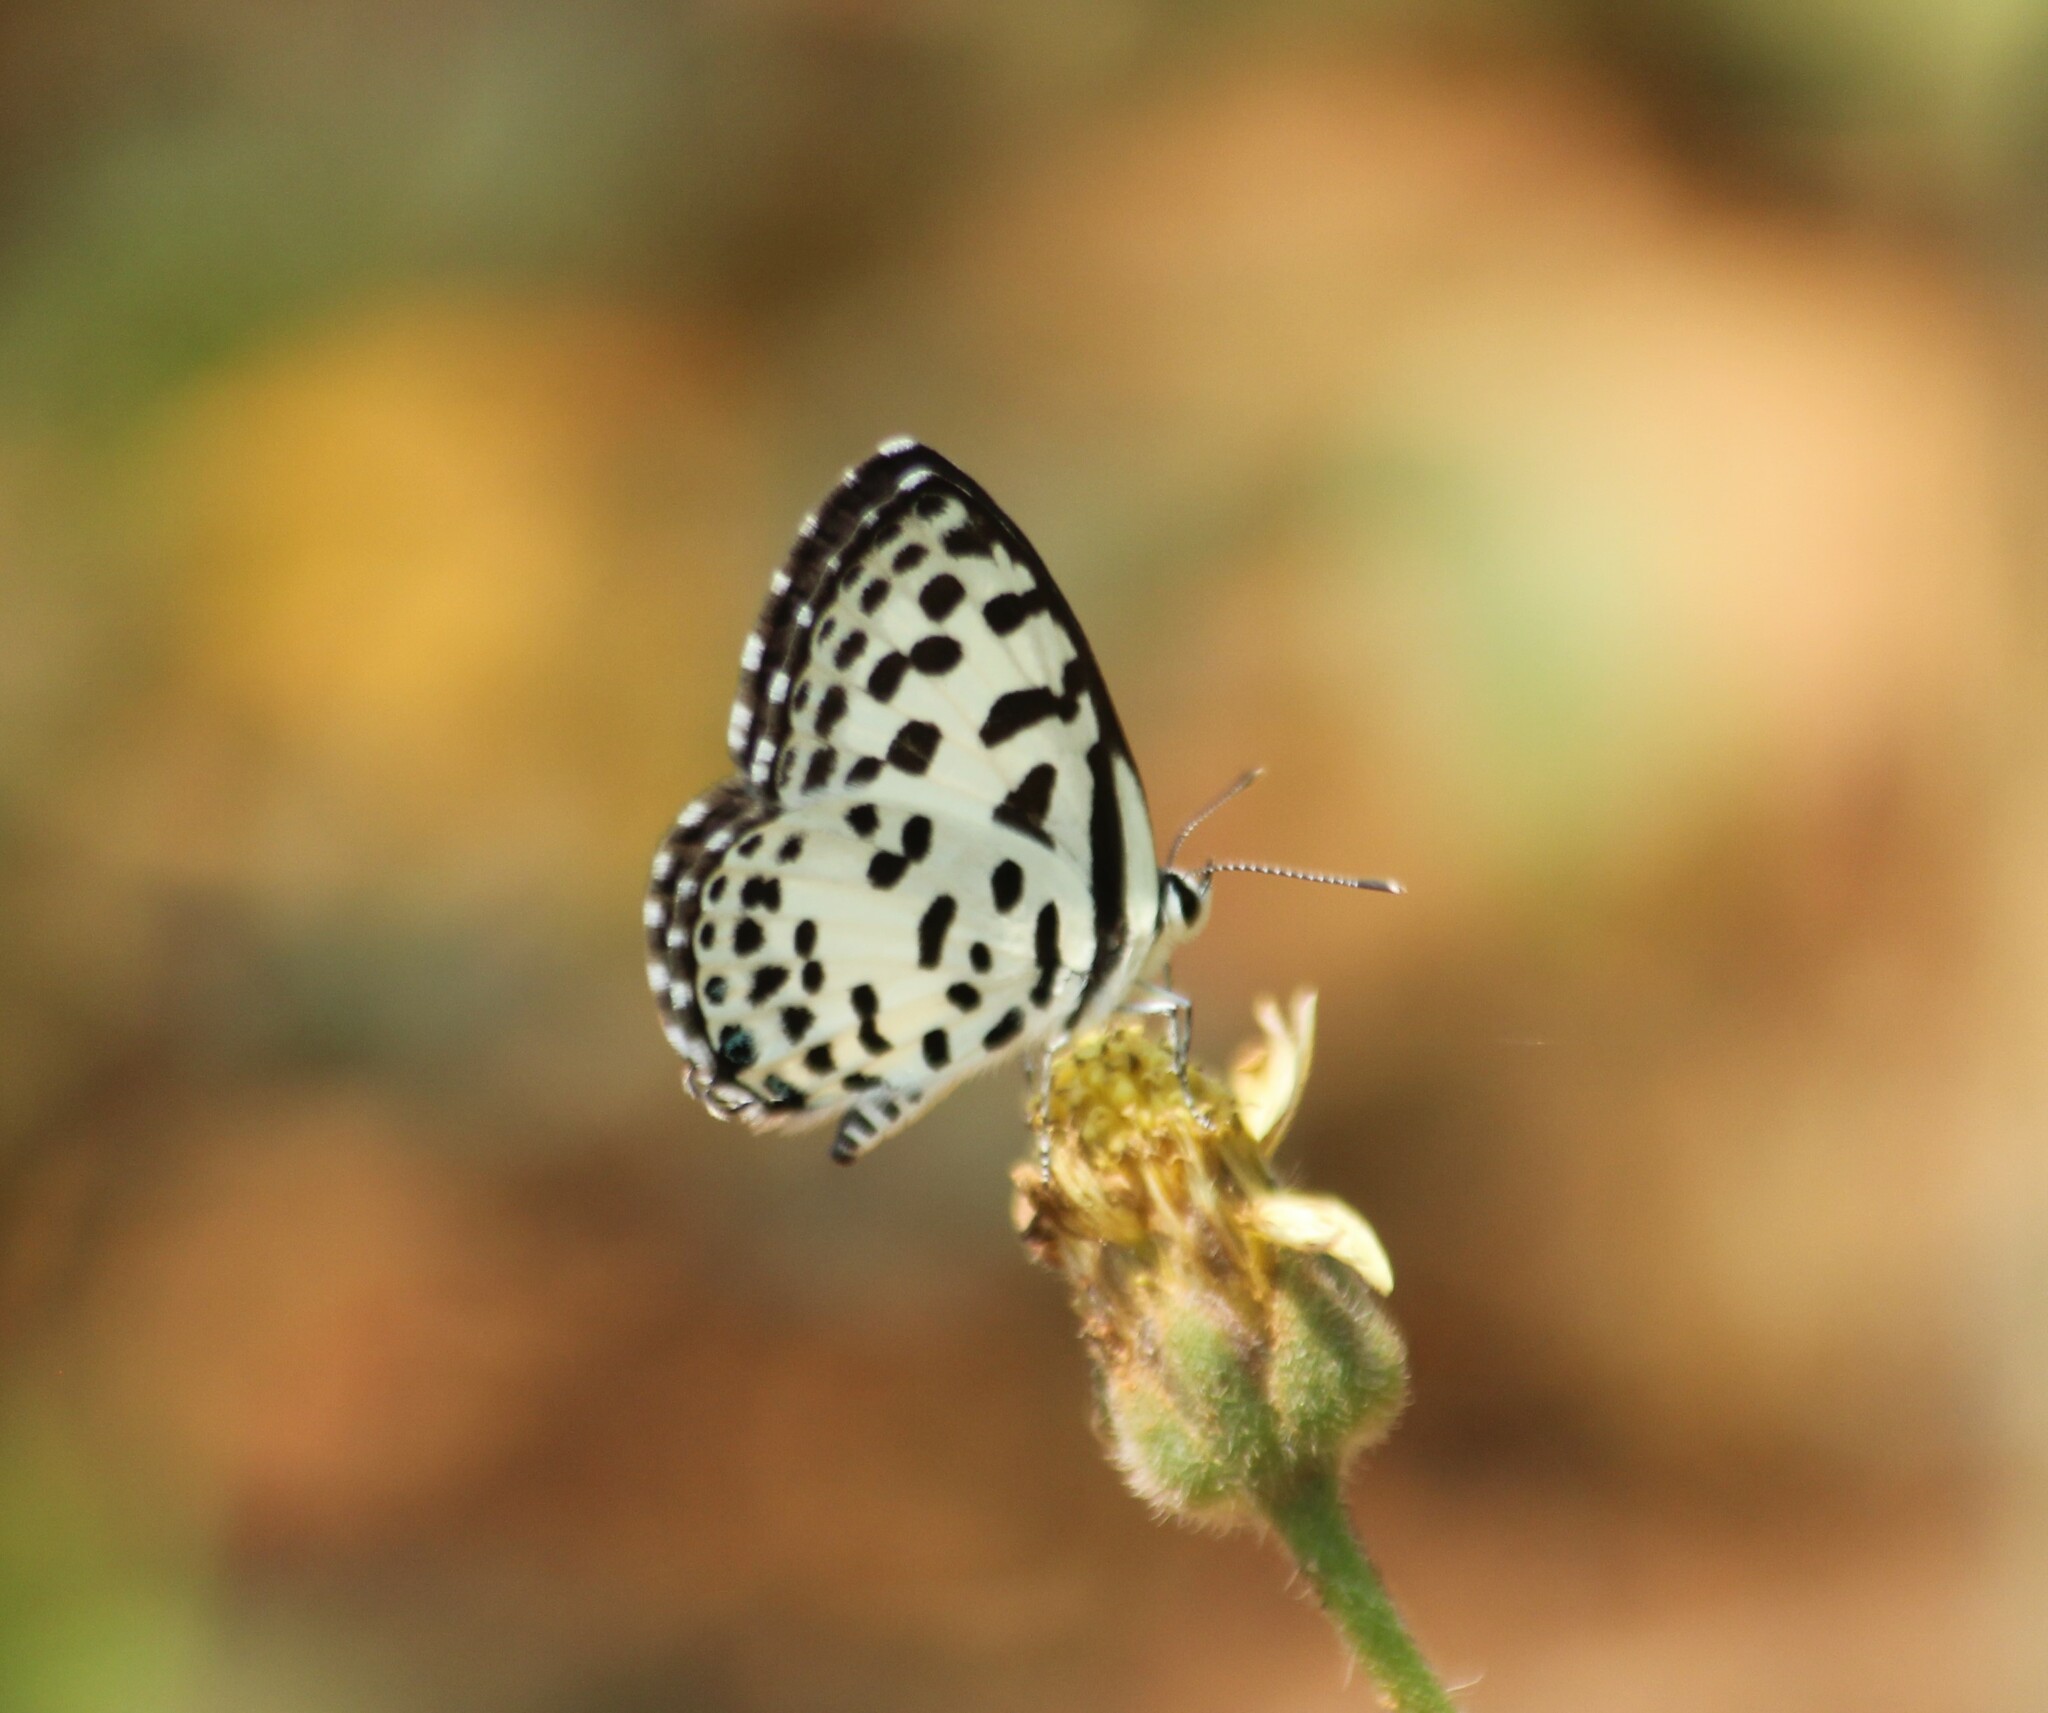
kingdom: Animalia
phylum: Arthropoda
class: Insecta
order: Lepidoptera
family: Lycaenidae
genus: Castalius
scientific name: Castalius rosimon
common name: Common pierrot
